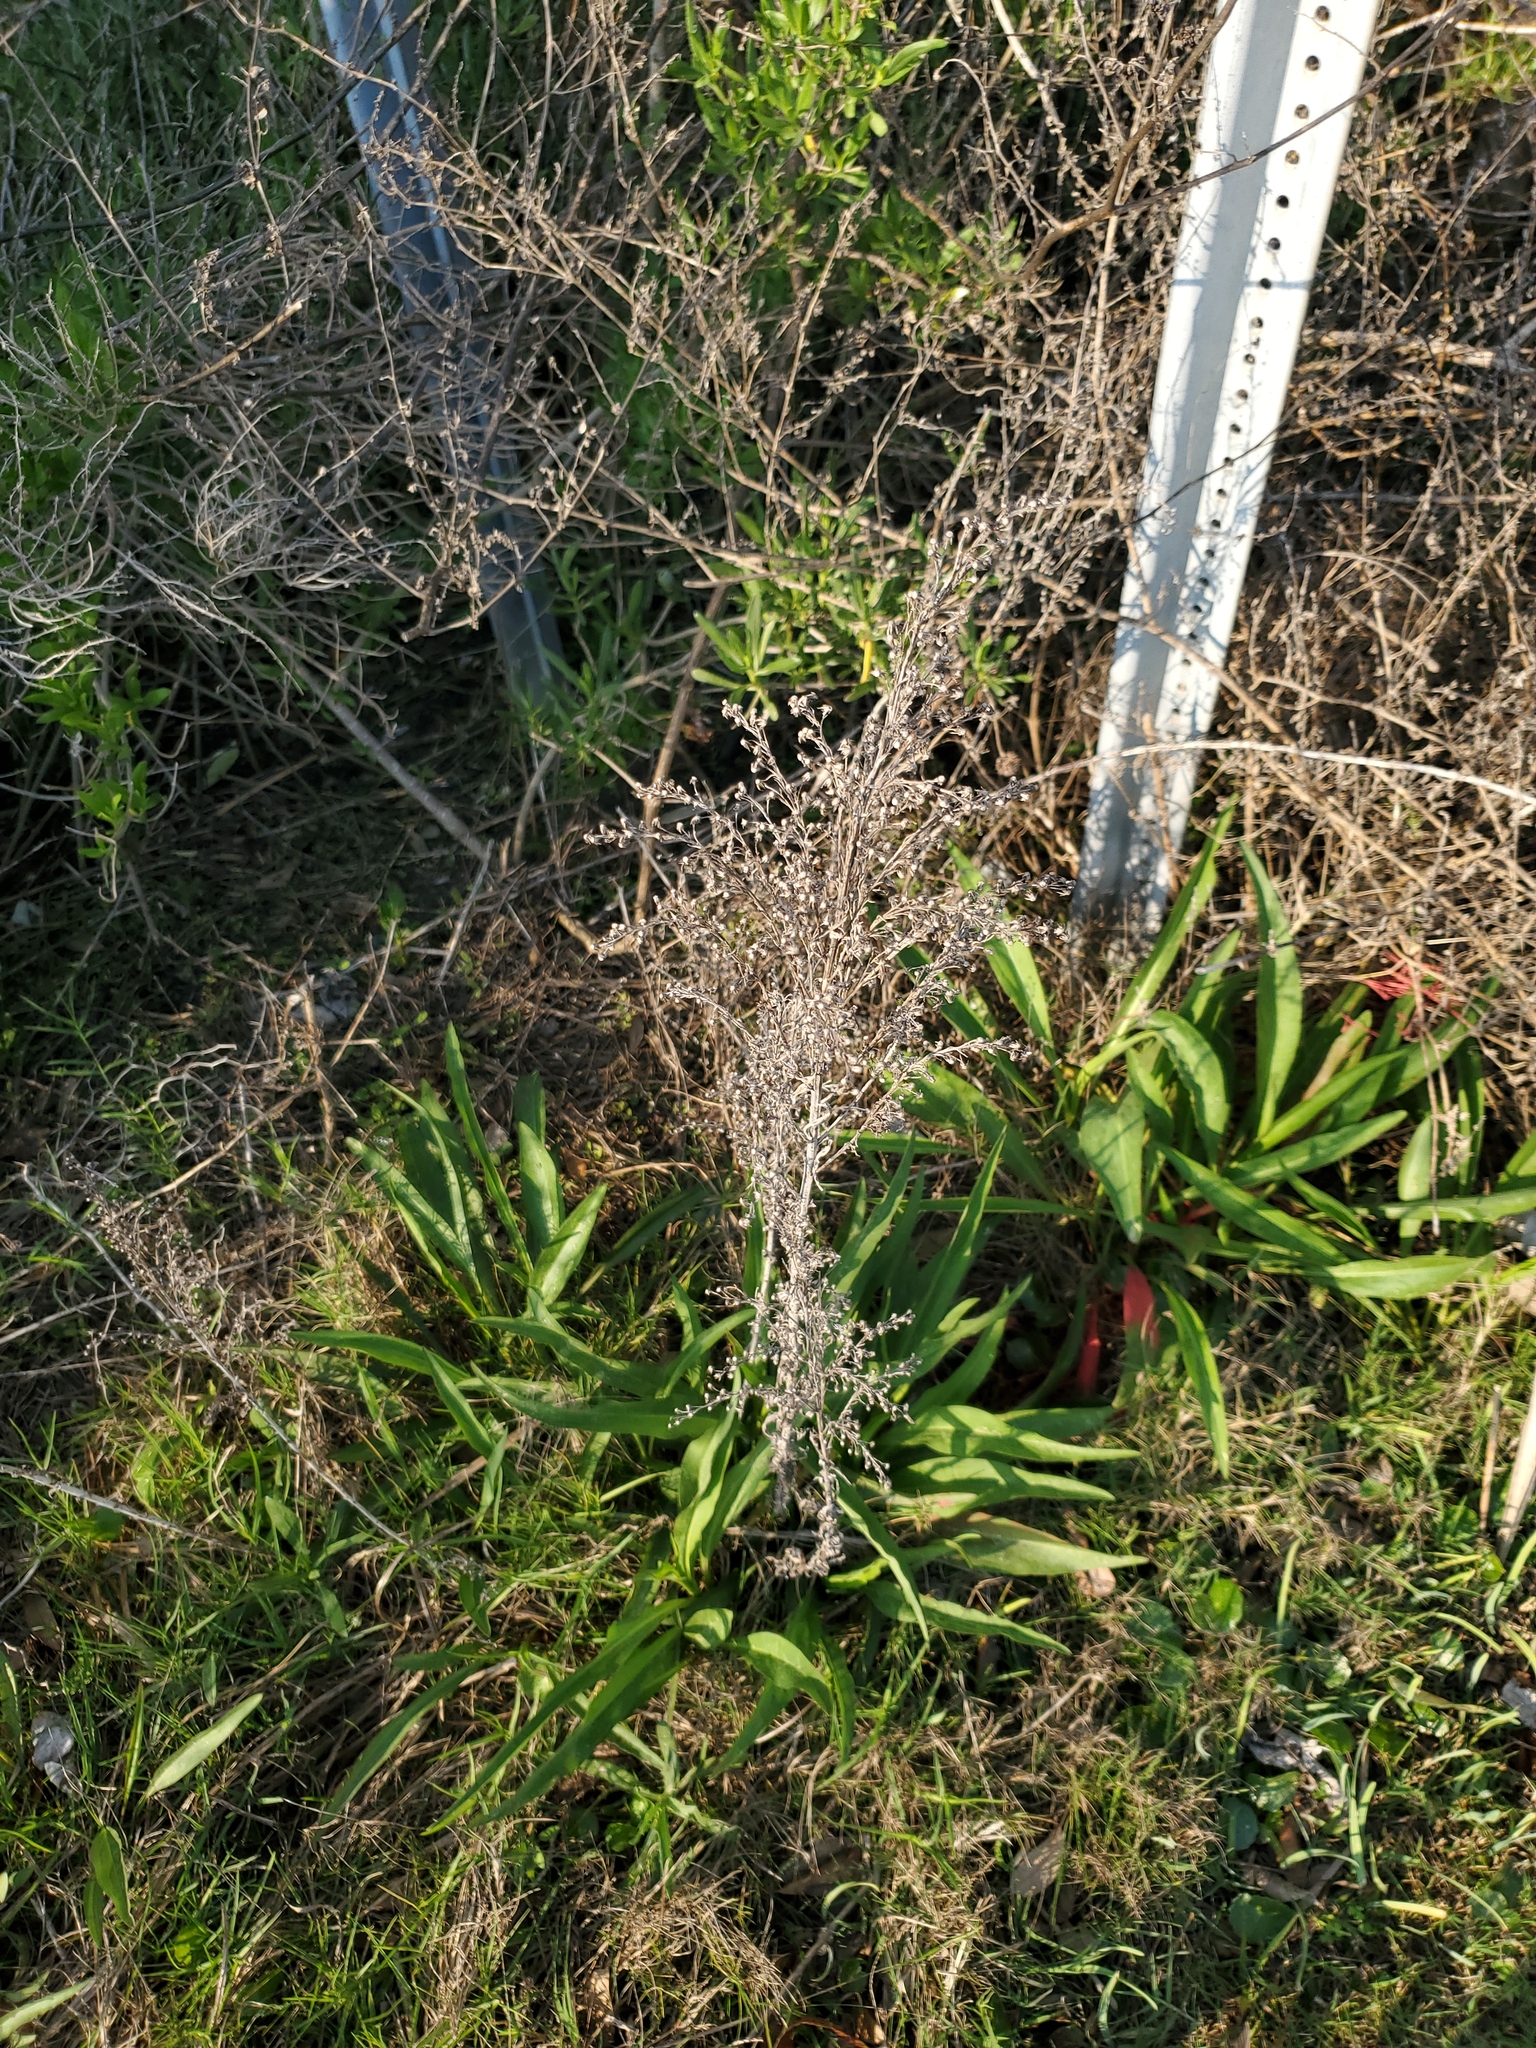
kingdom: Plantae
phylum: Tracheophyta
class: Magnoliopsida
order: Asterales
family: Asteraceae
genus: Solidago
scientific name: Solidago mexicana
